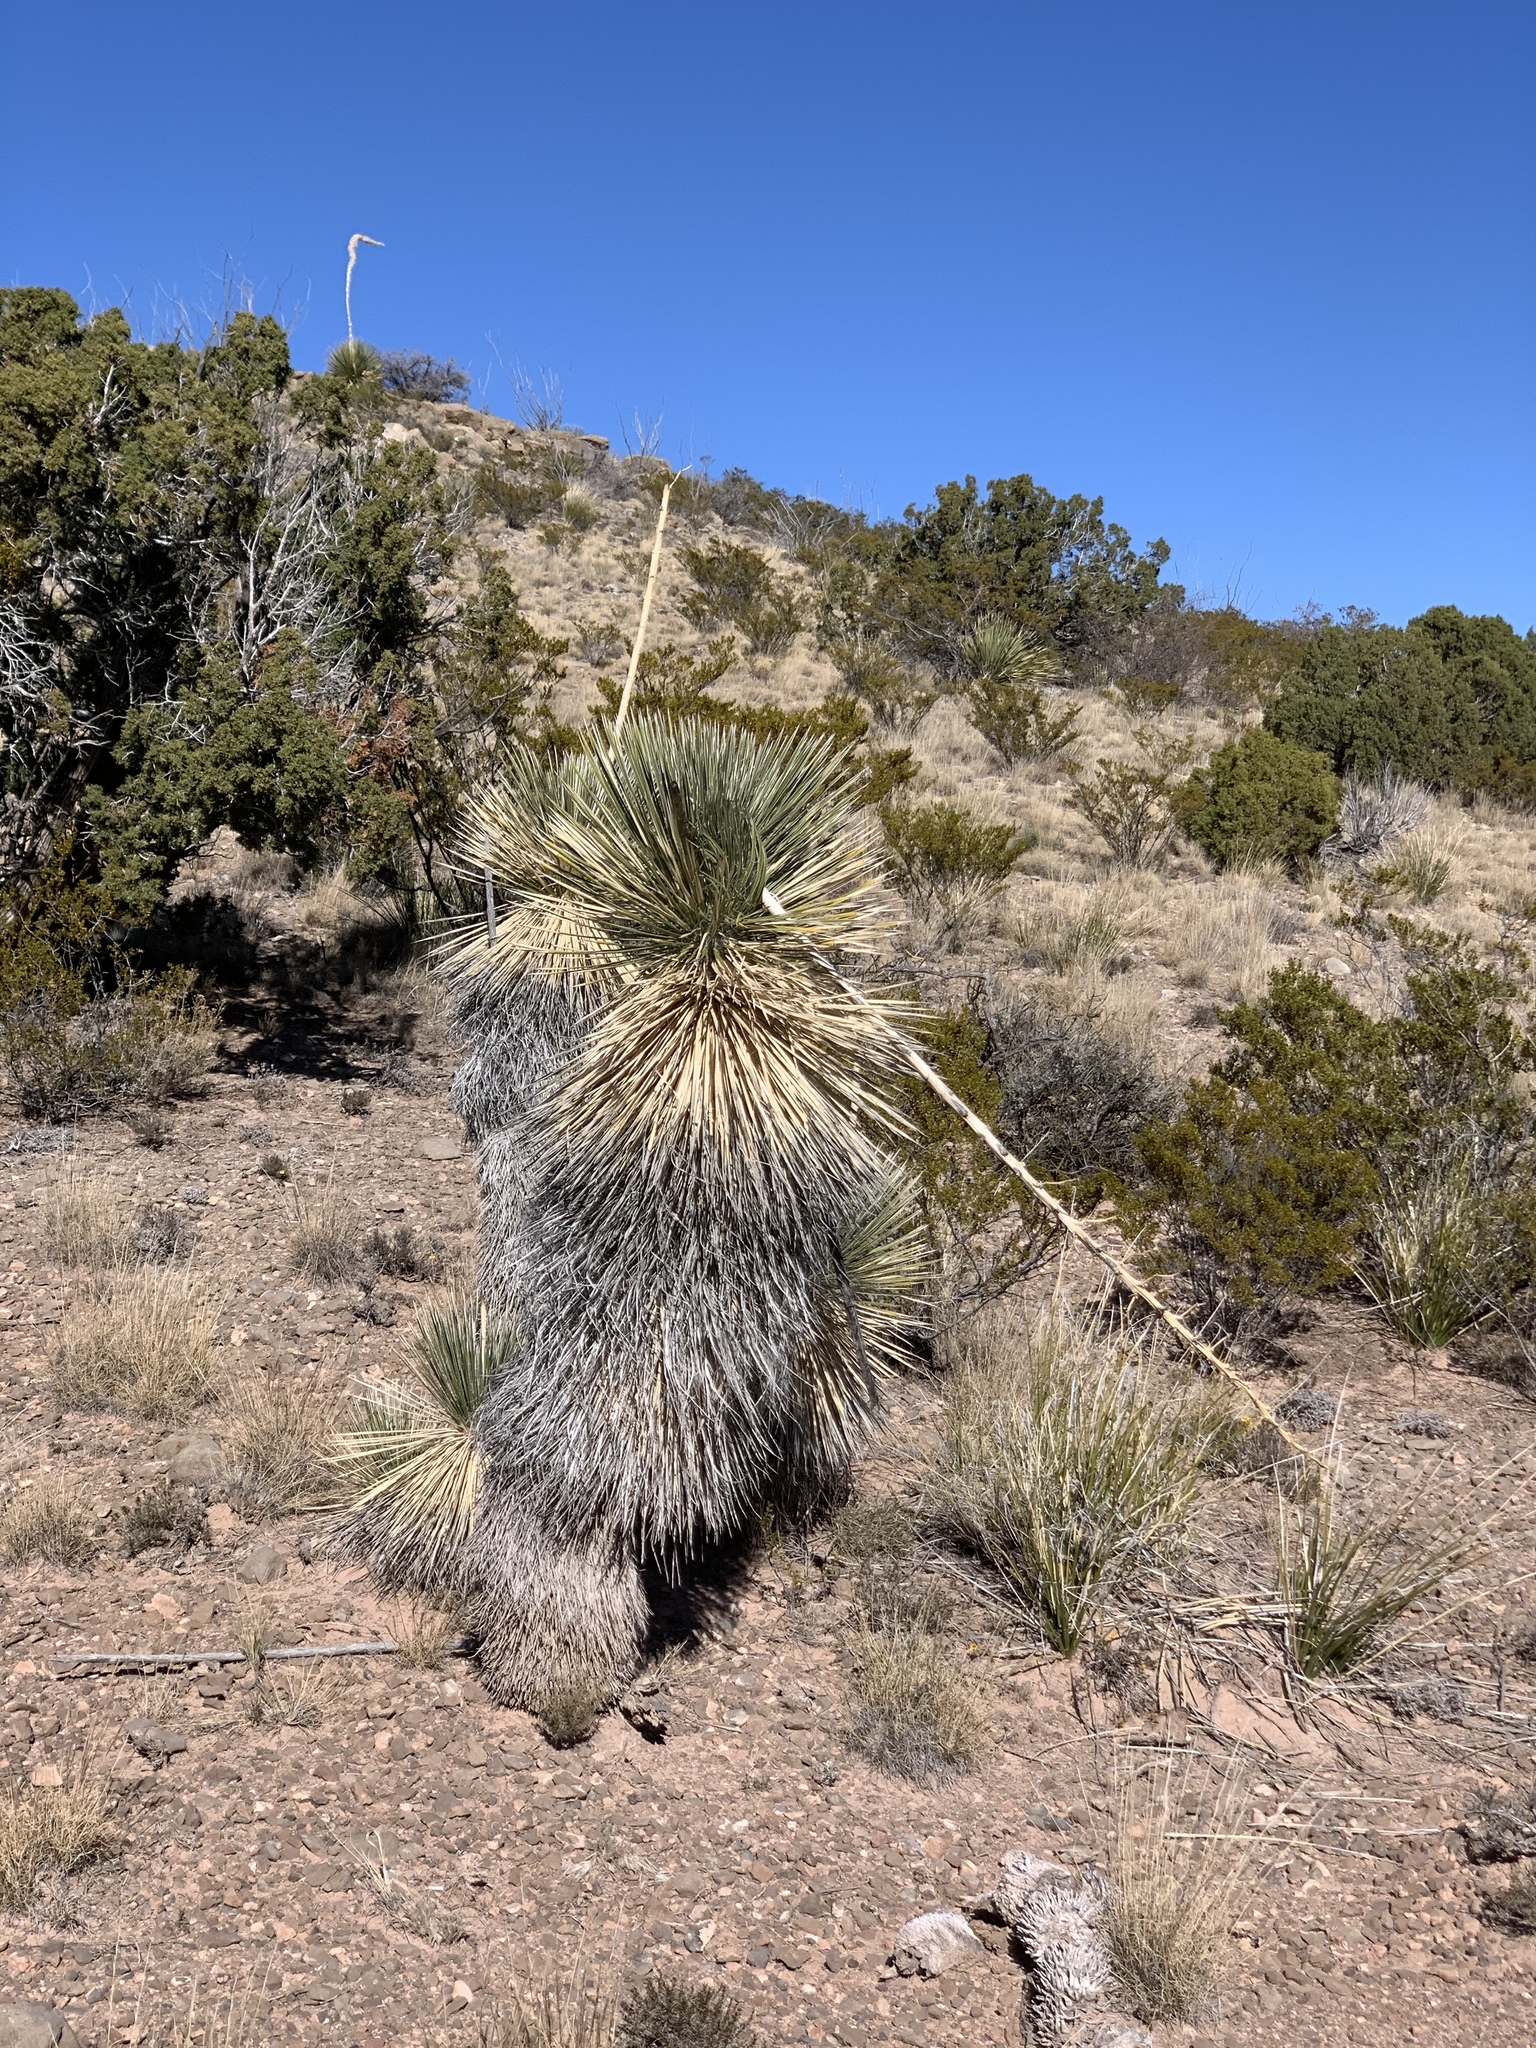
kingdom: Plantae
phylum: Tracheophyta
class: Liliopsida
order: Asparagales
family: Asparagaceae
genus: Yucca
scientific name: Yucca elata
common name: Palmella
